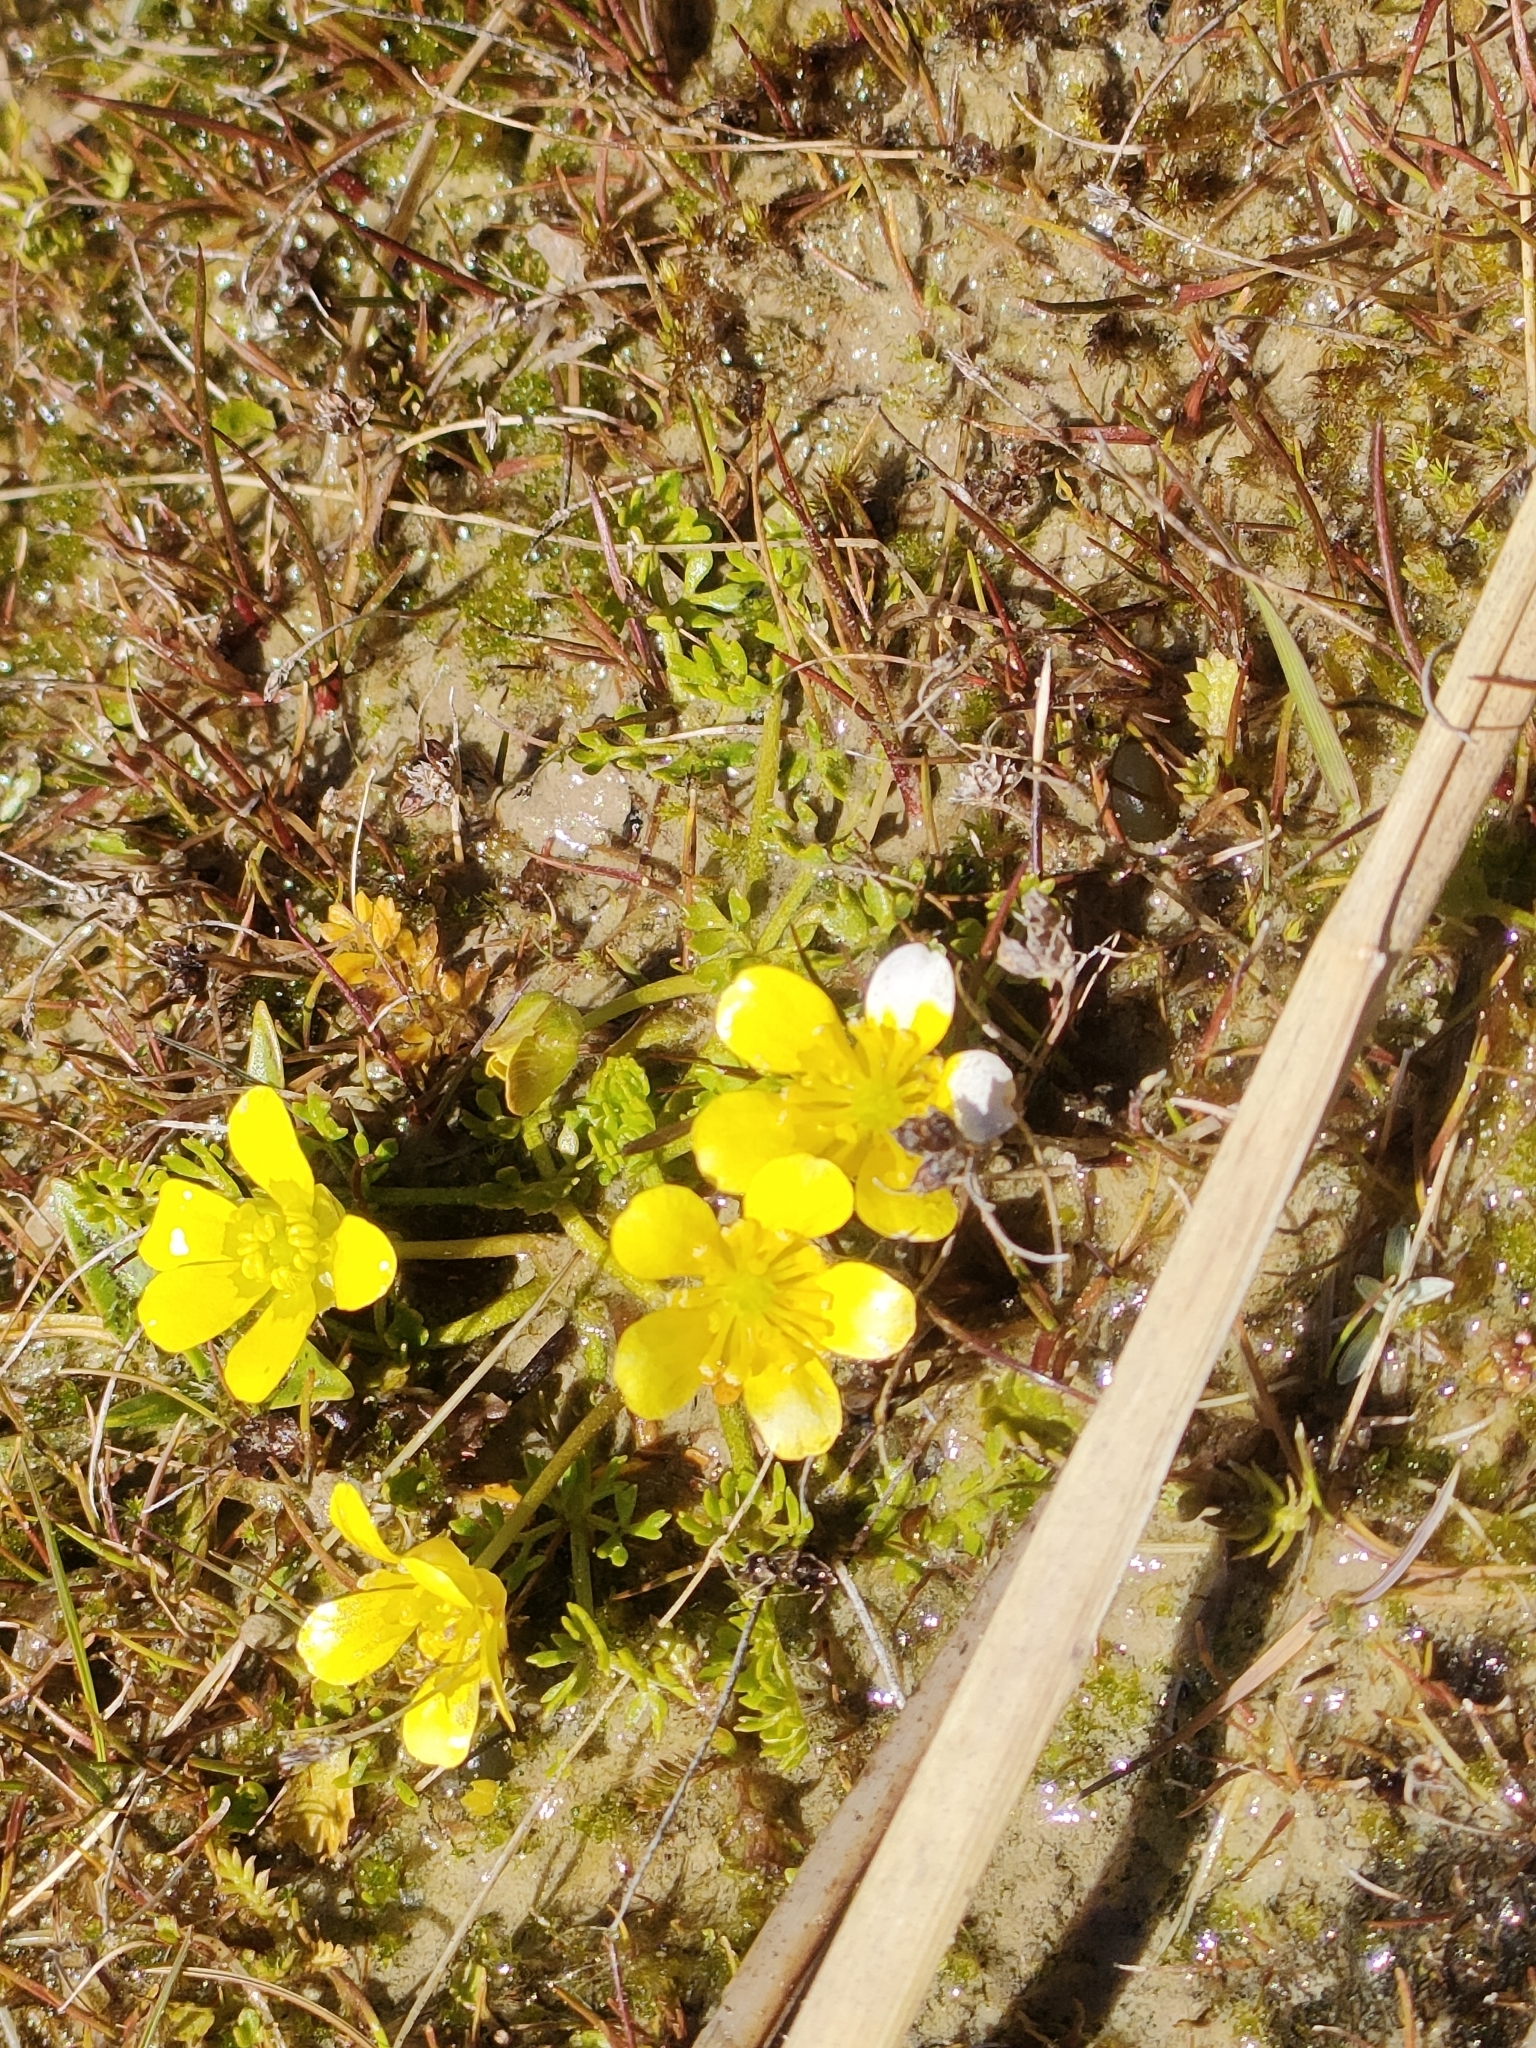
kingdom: Plantae
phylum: Tracheophyta
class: Magnoliopsida
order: Ranunculales
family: Ranunculaceae
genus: Ranunculus
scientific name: Ranunculus gracilipes
